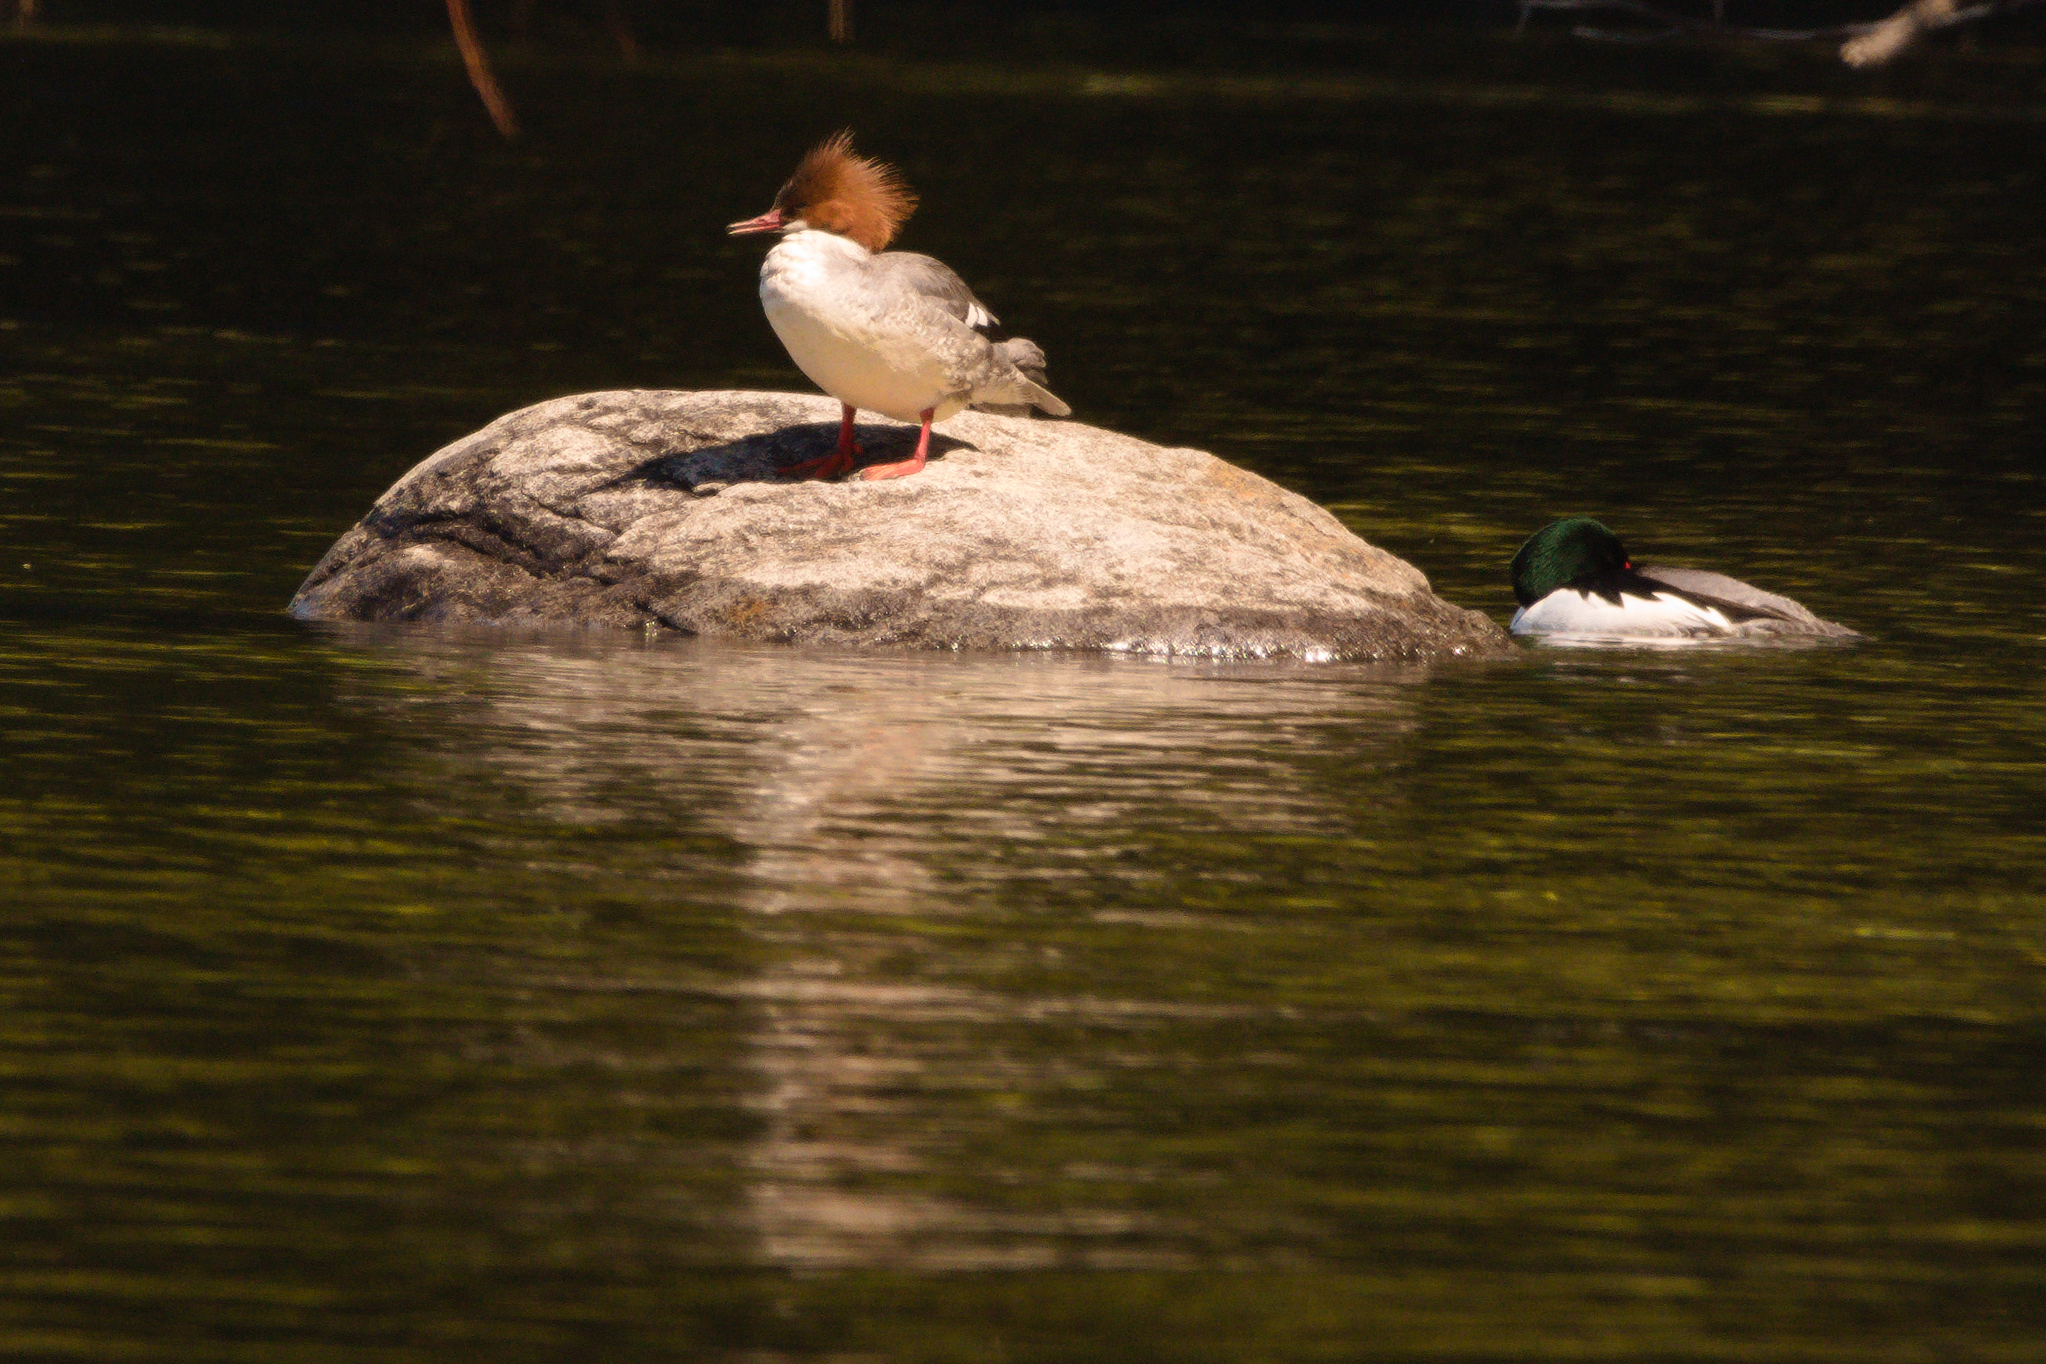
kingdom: Animalia
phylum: Chordata
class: Aves
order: Anseriformes
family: Anatidae
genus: Mergus
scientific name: Mergus merganser
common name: Common merganser
